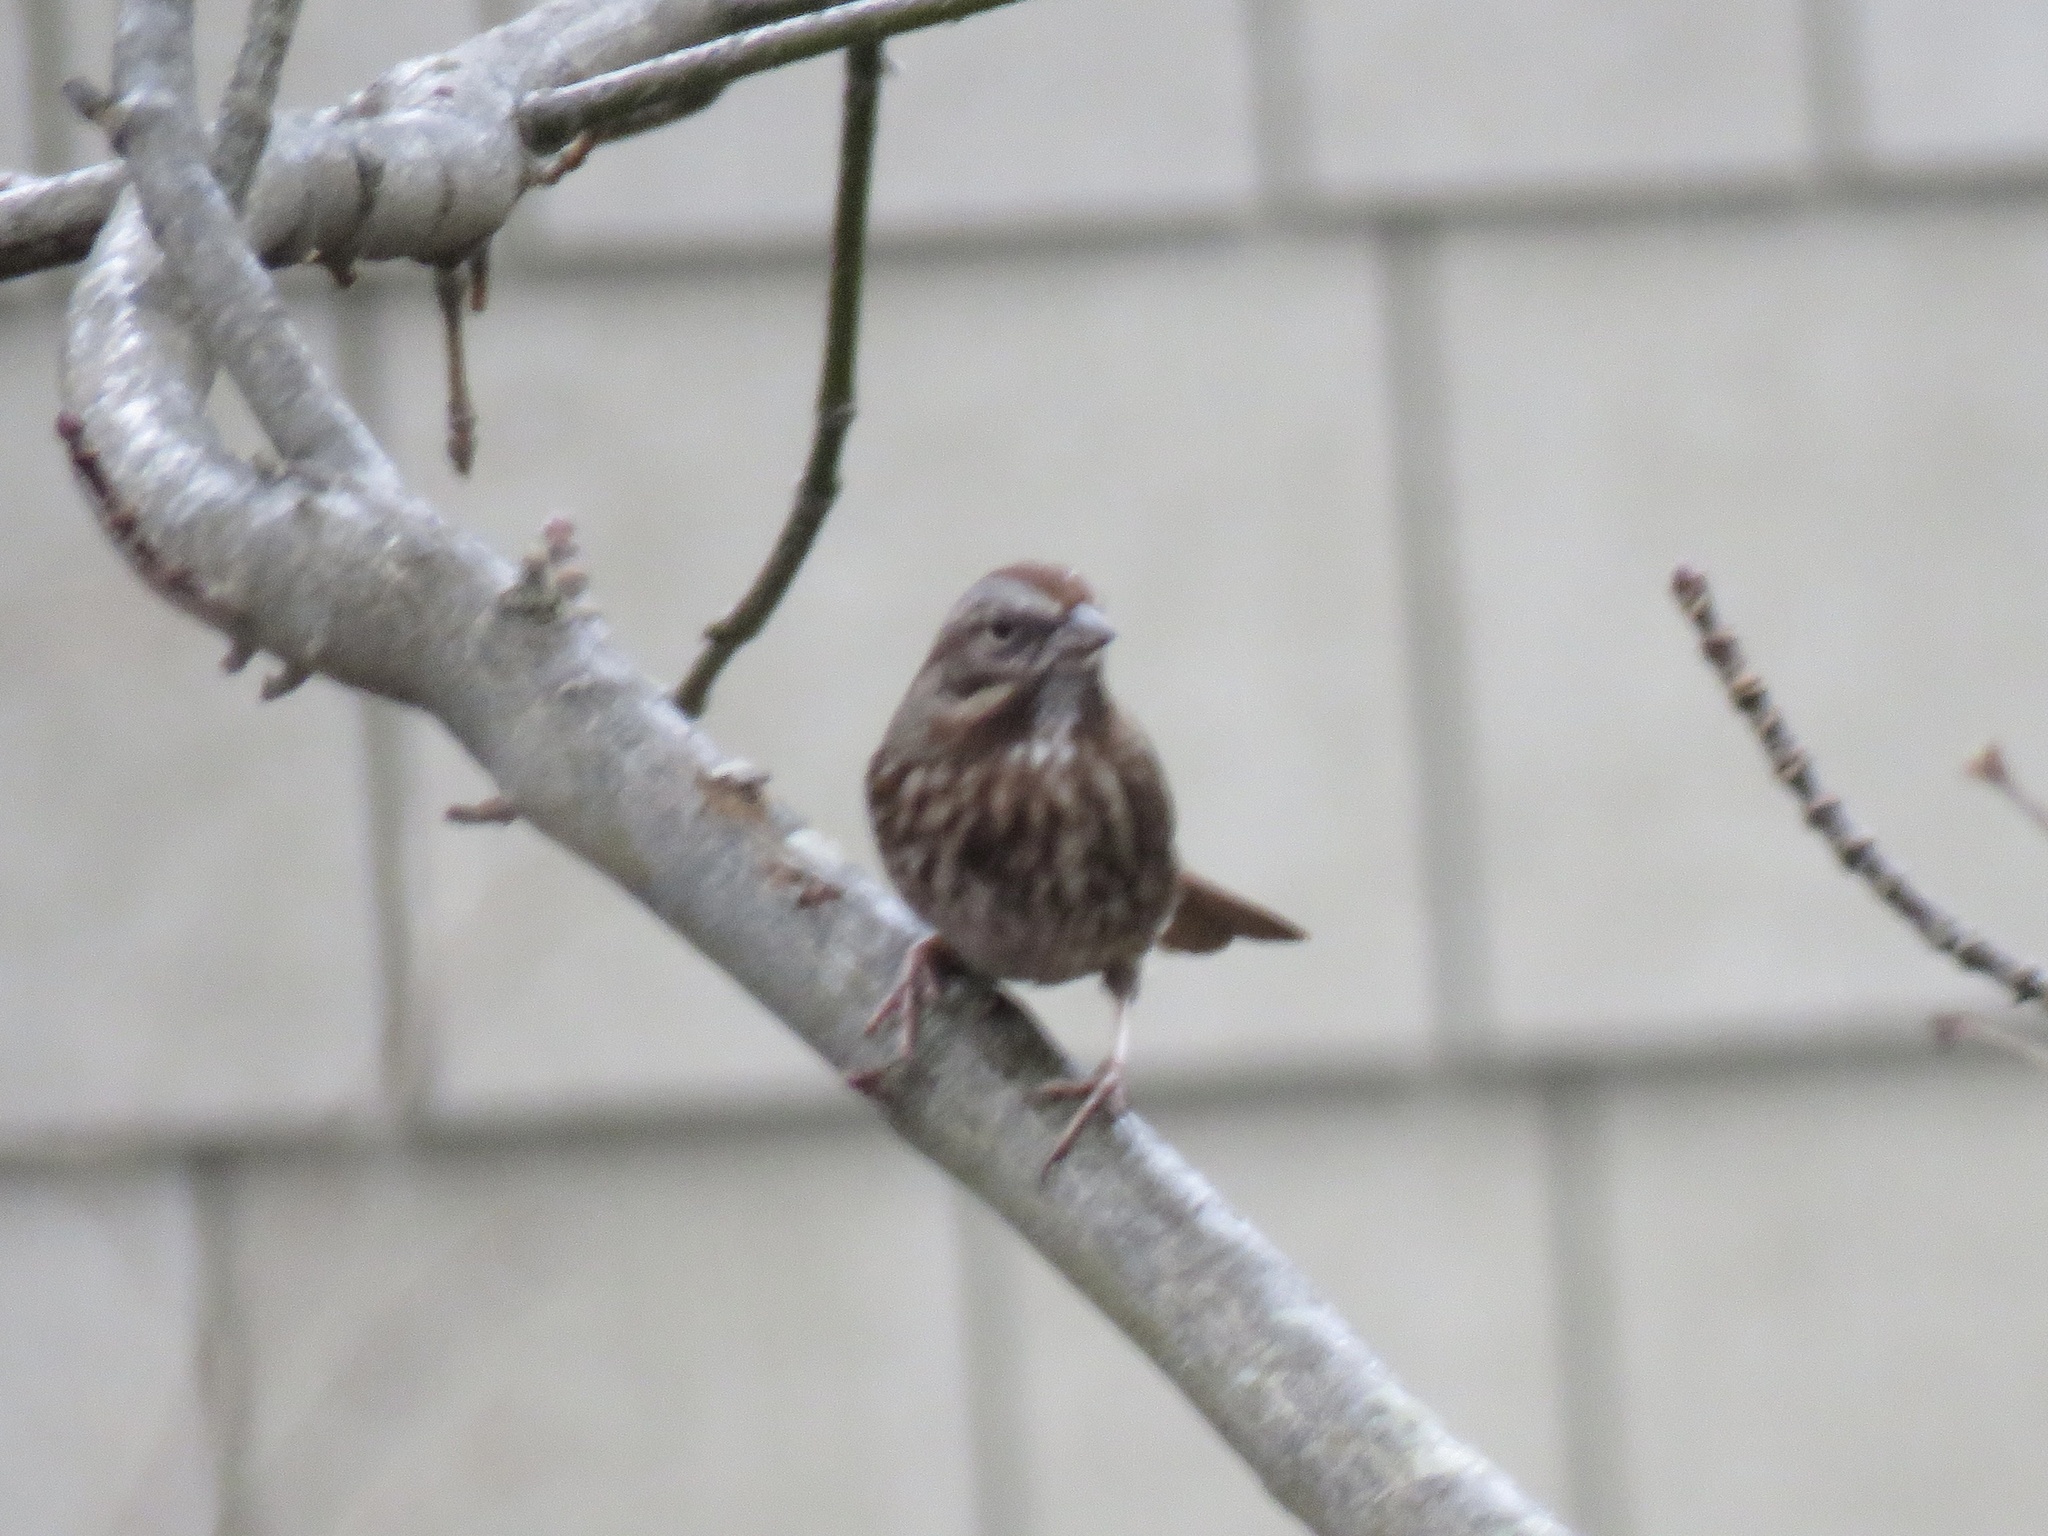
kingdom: Animalia
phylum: Chordata
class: Aves
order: Passeriformes
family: Passerellidae
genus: Melospiza
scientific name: Melospiza melodia
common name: Song sparrow
